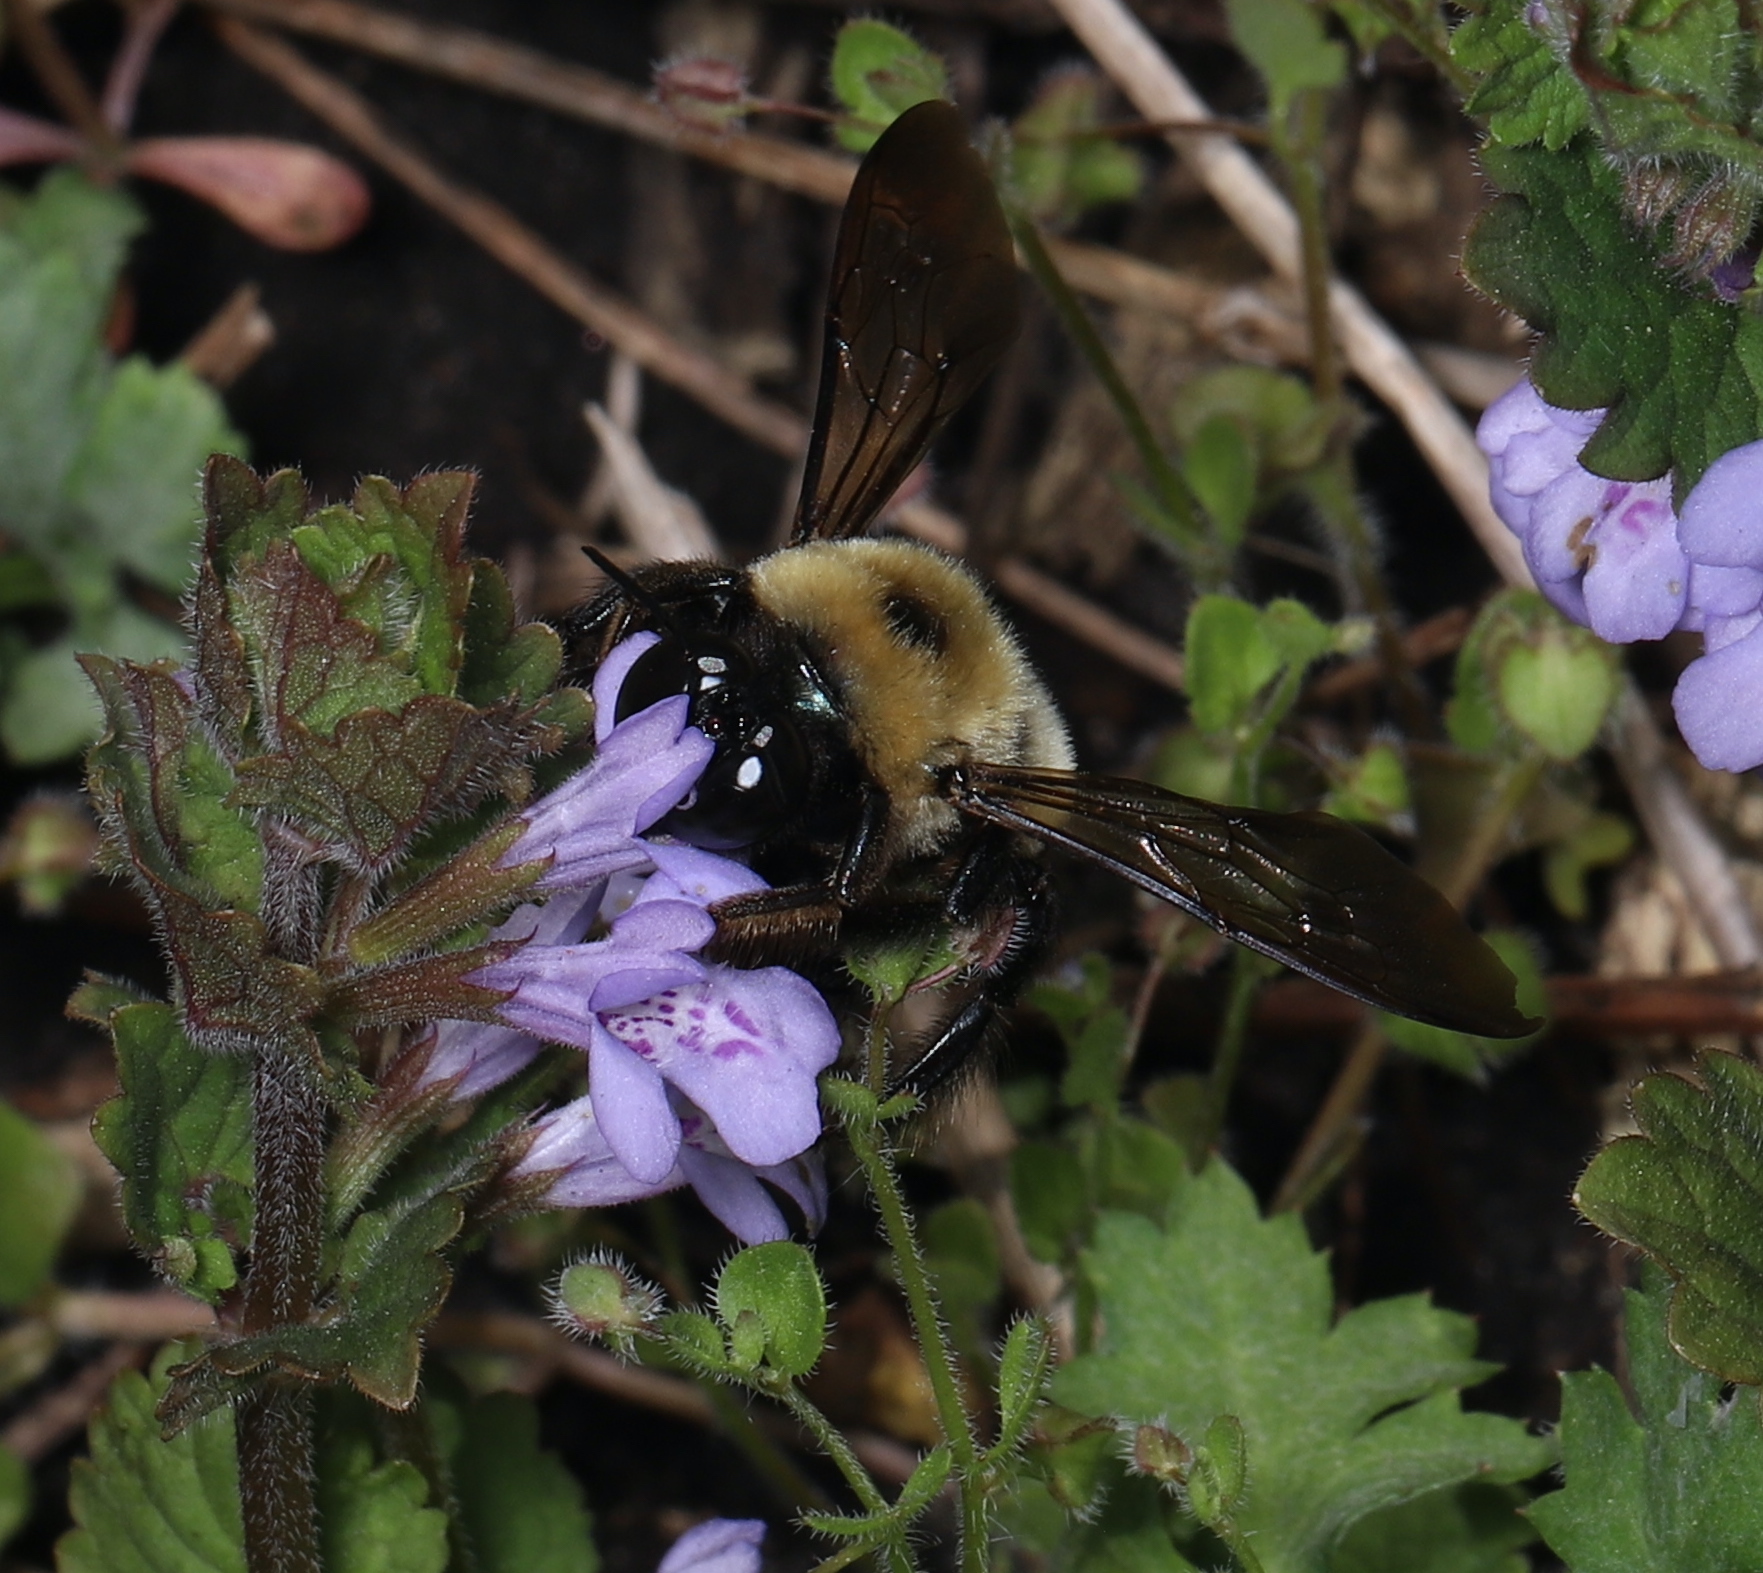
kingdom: Animalia
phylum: Arthropoda
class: Insecta
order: Hymenoptera
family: Apidae
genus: Xylocopa
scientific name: Xylocopa virginica
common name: Carpenter bee
